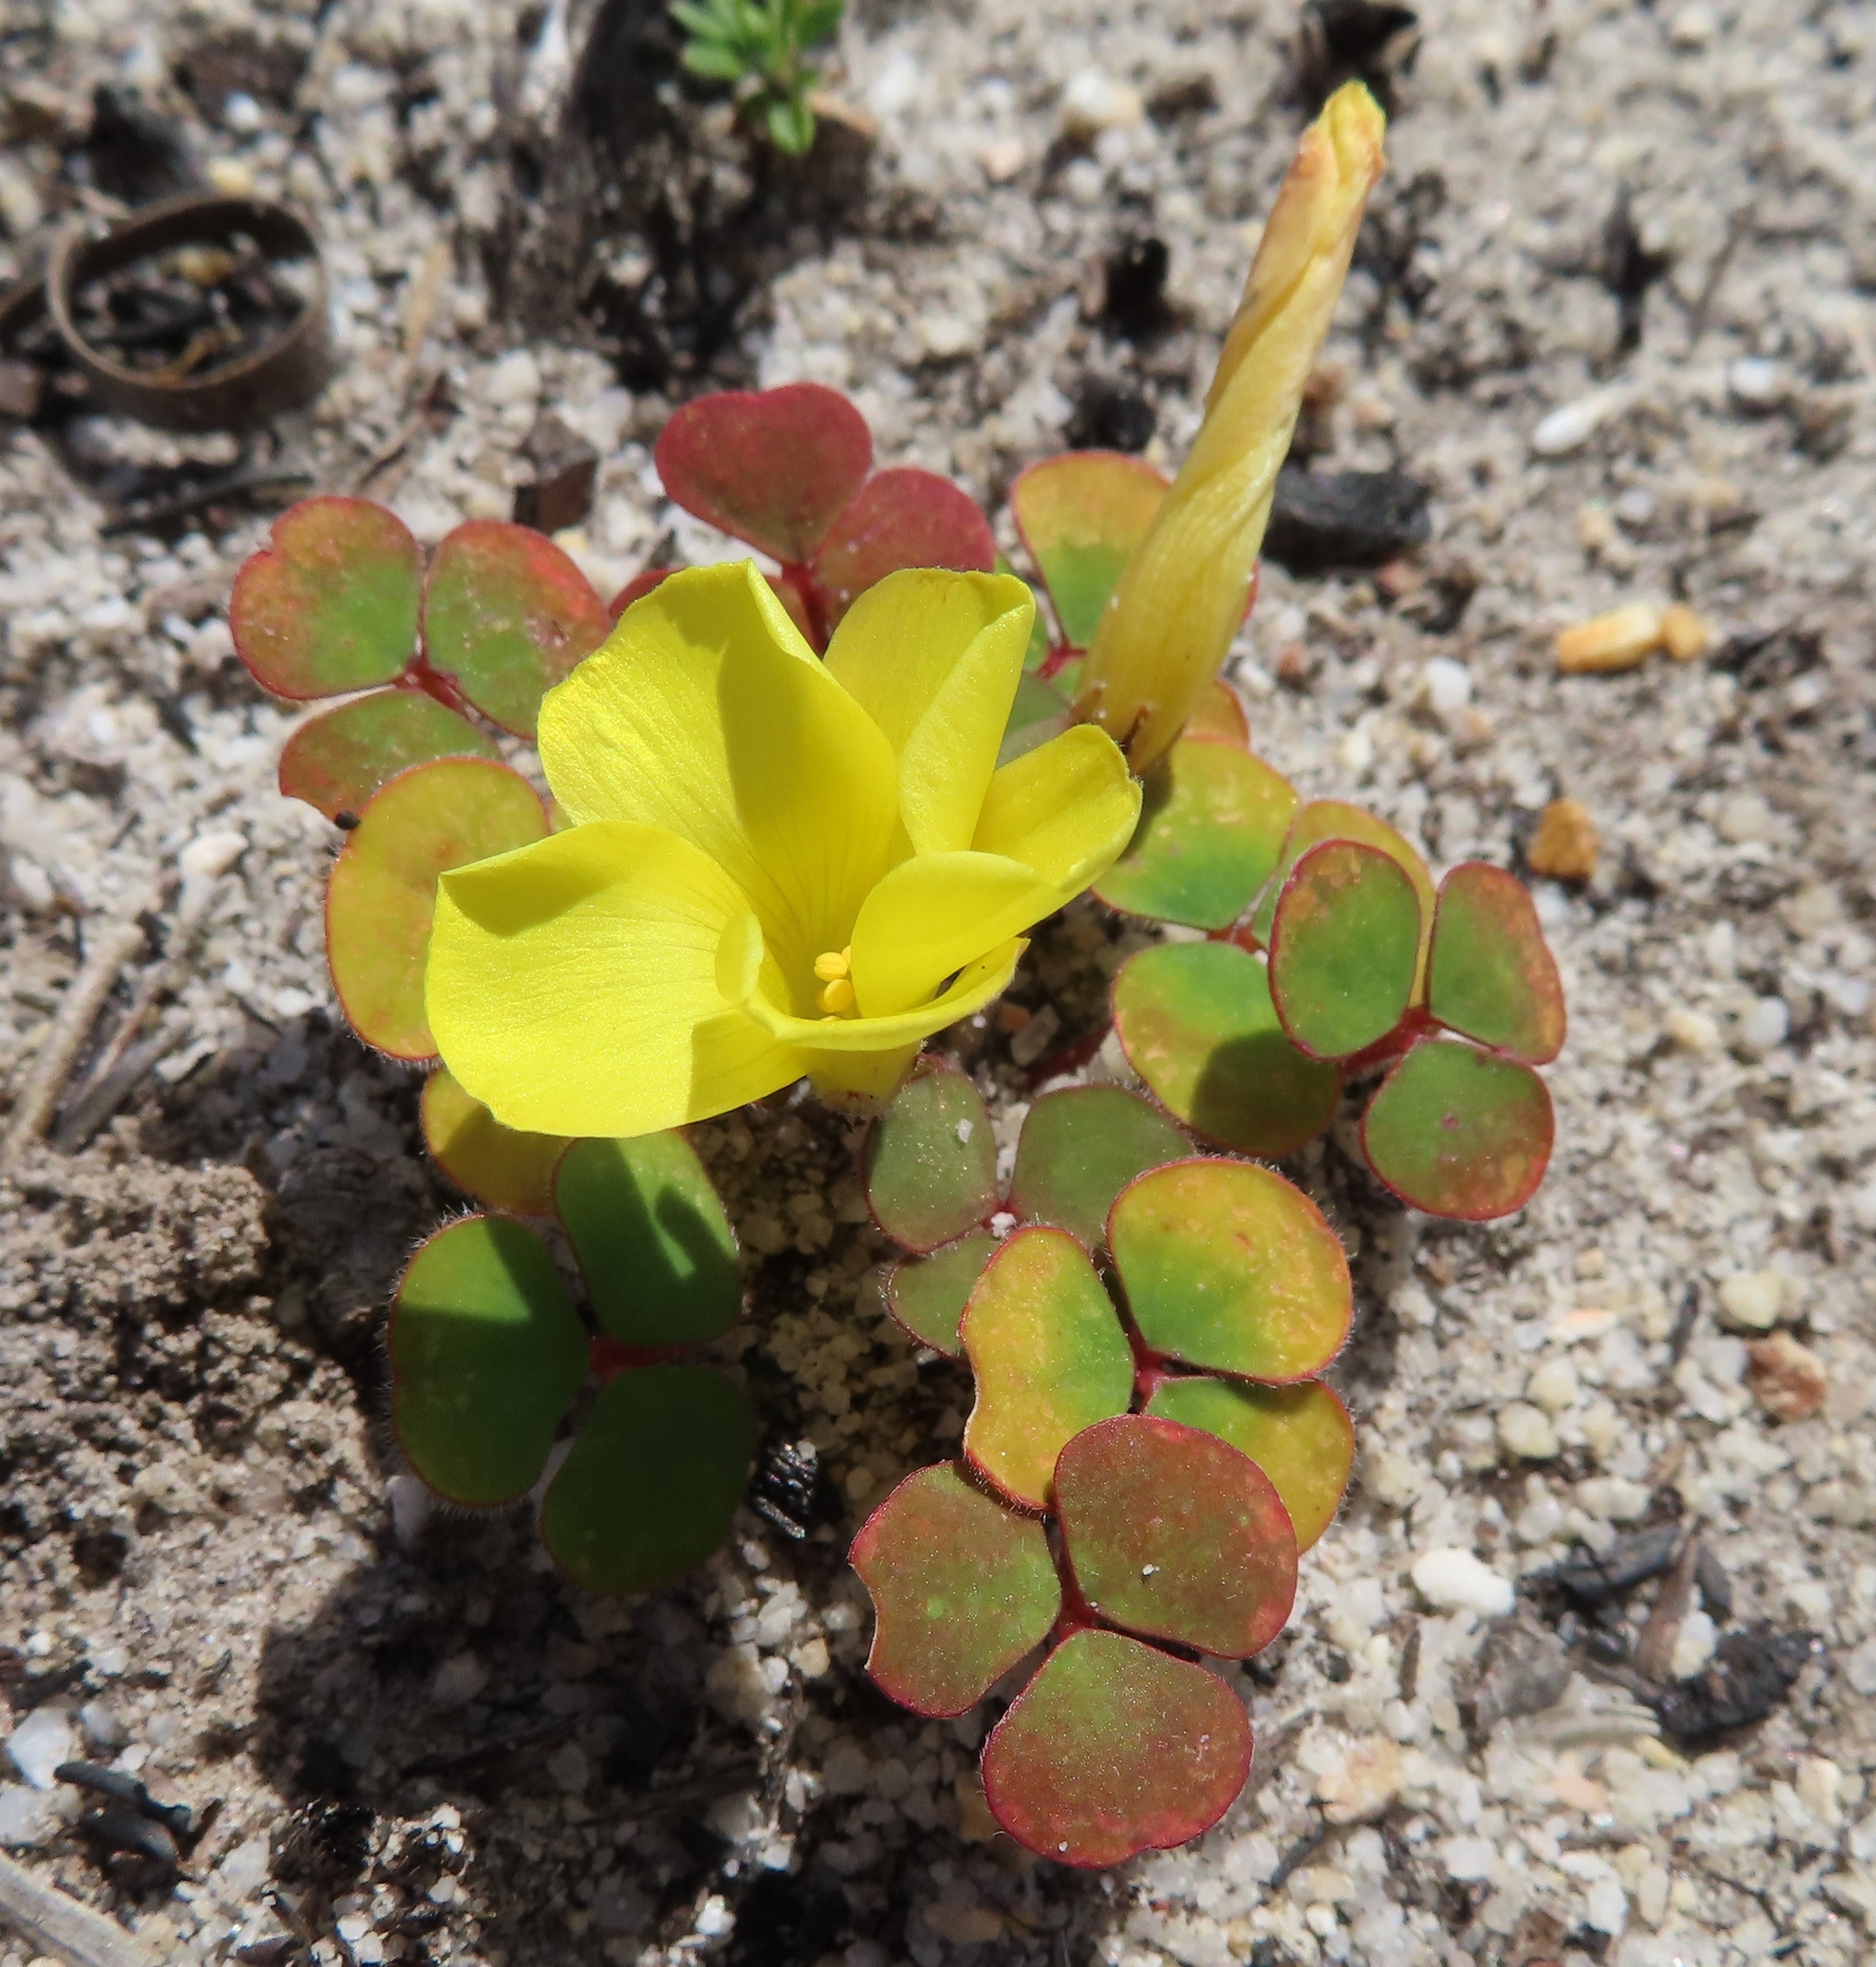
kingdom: Plantae
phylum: Tracheophyta
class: Magnoliopsida
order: Oxalidales
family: Oxalidaceae
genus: Oxalis
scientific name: Oxalis luteola
